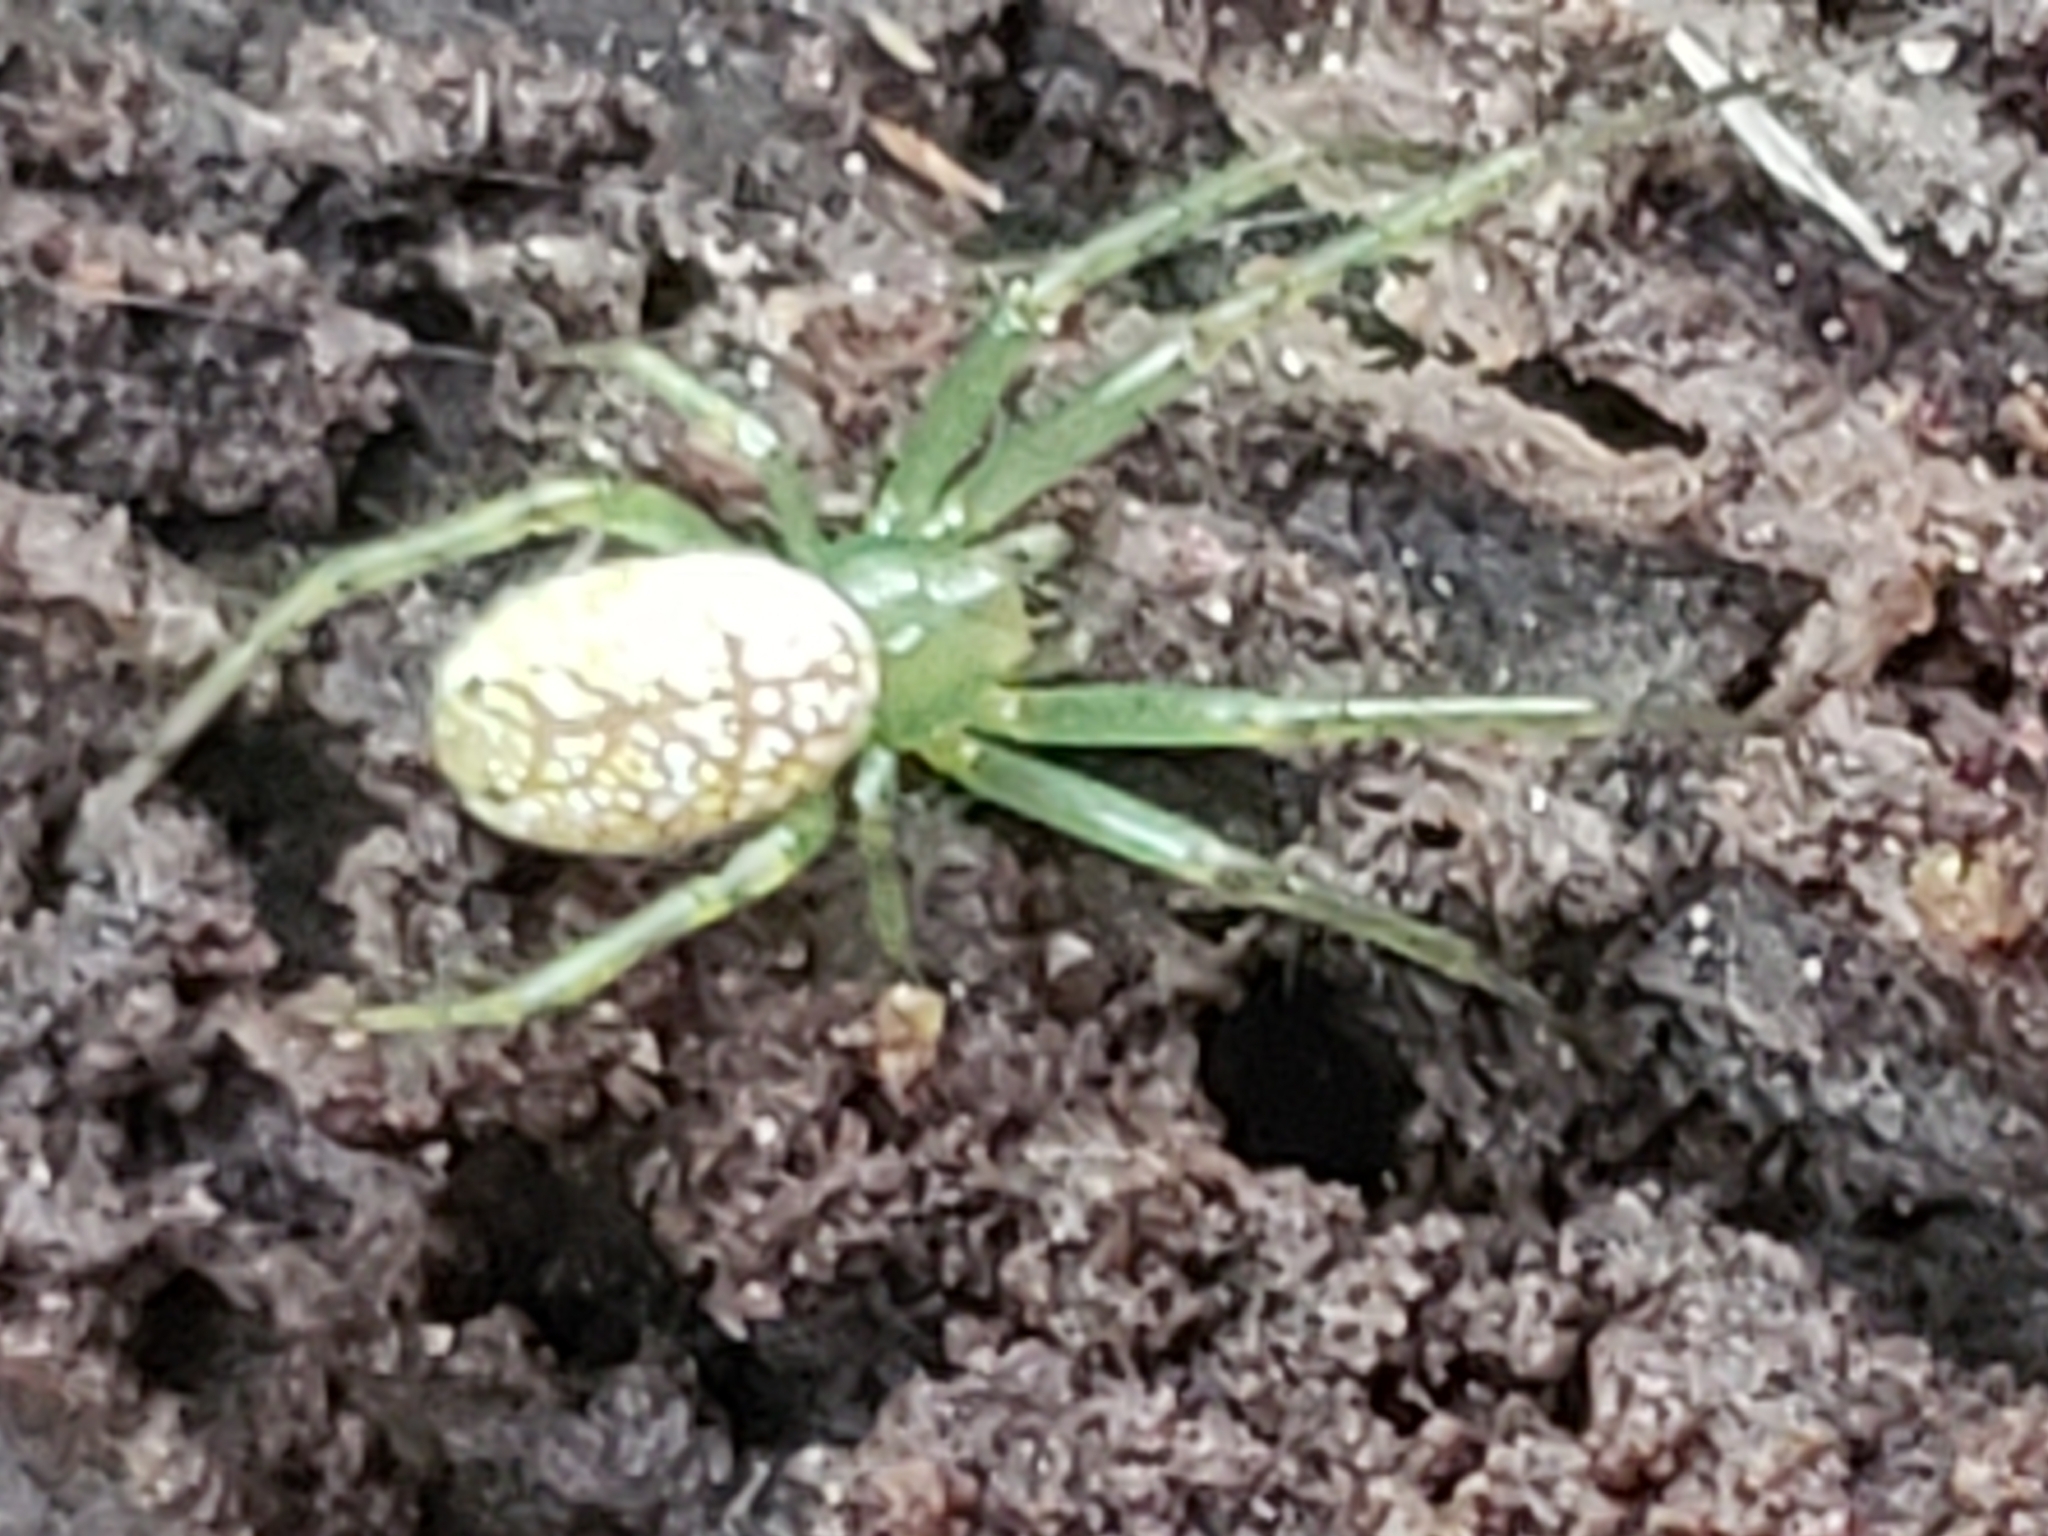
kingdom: Animalia
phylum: Arthropoda
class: Arachnida
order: Araneae
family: Araneidae
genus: Mangora
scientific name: Mangora maculata
